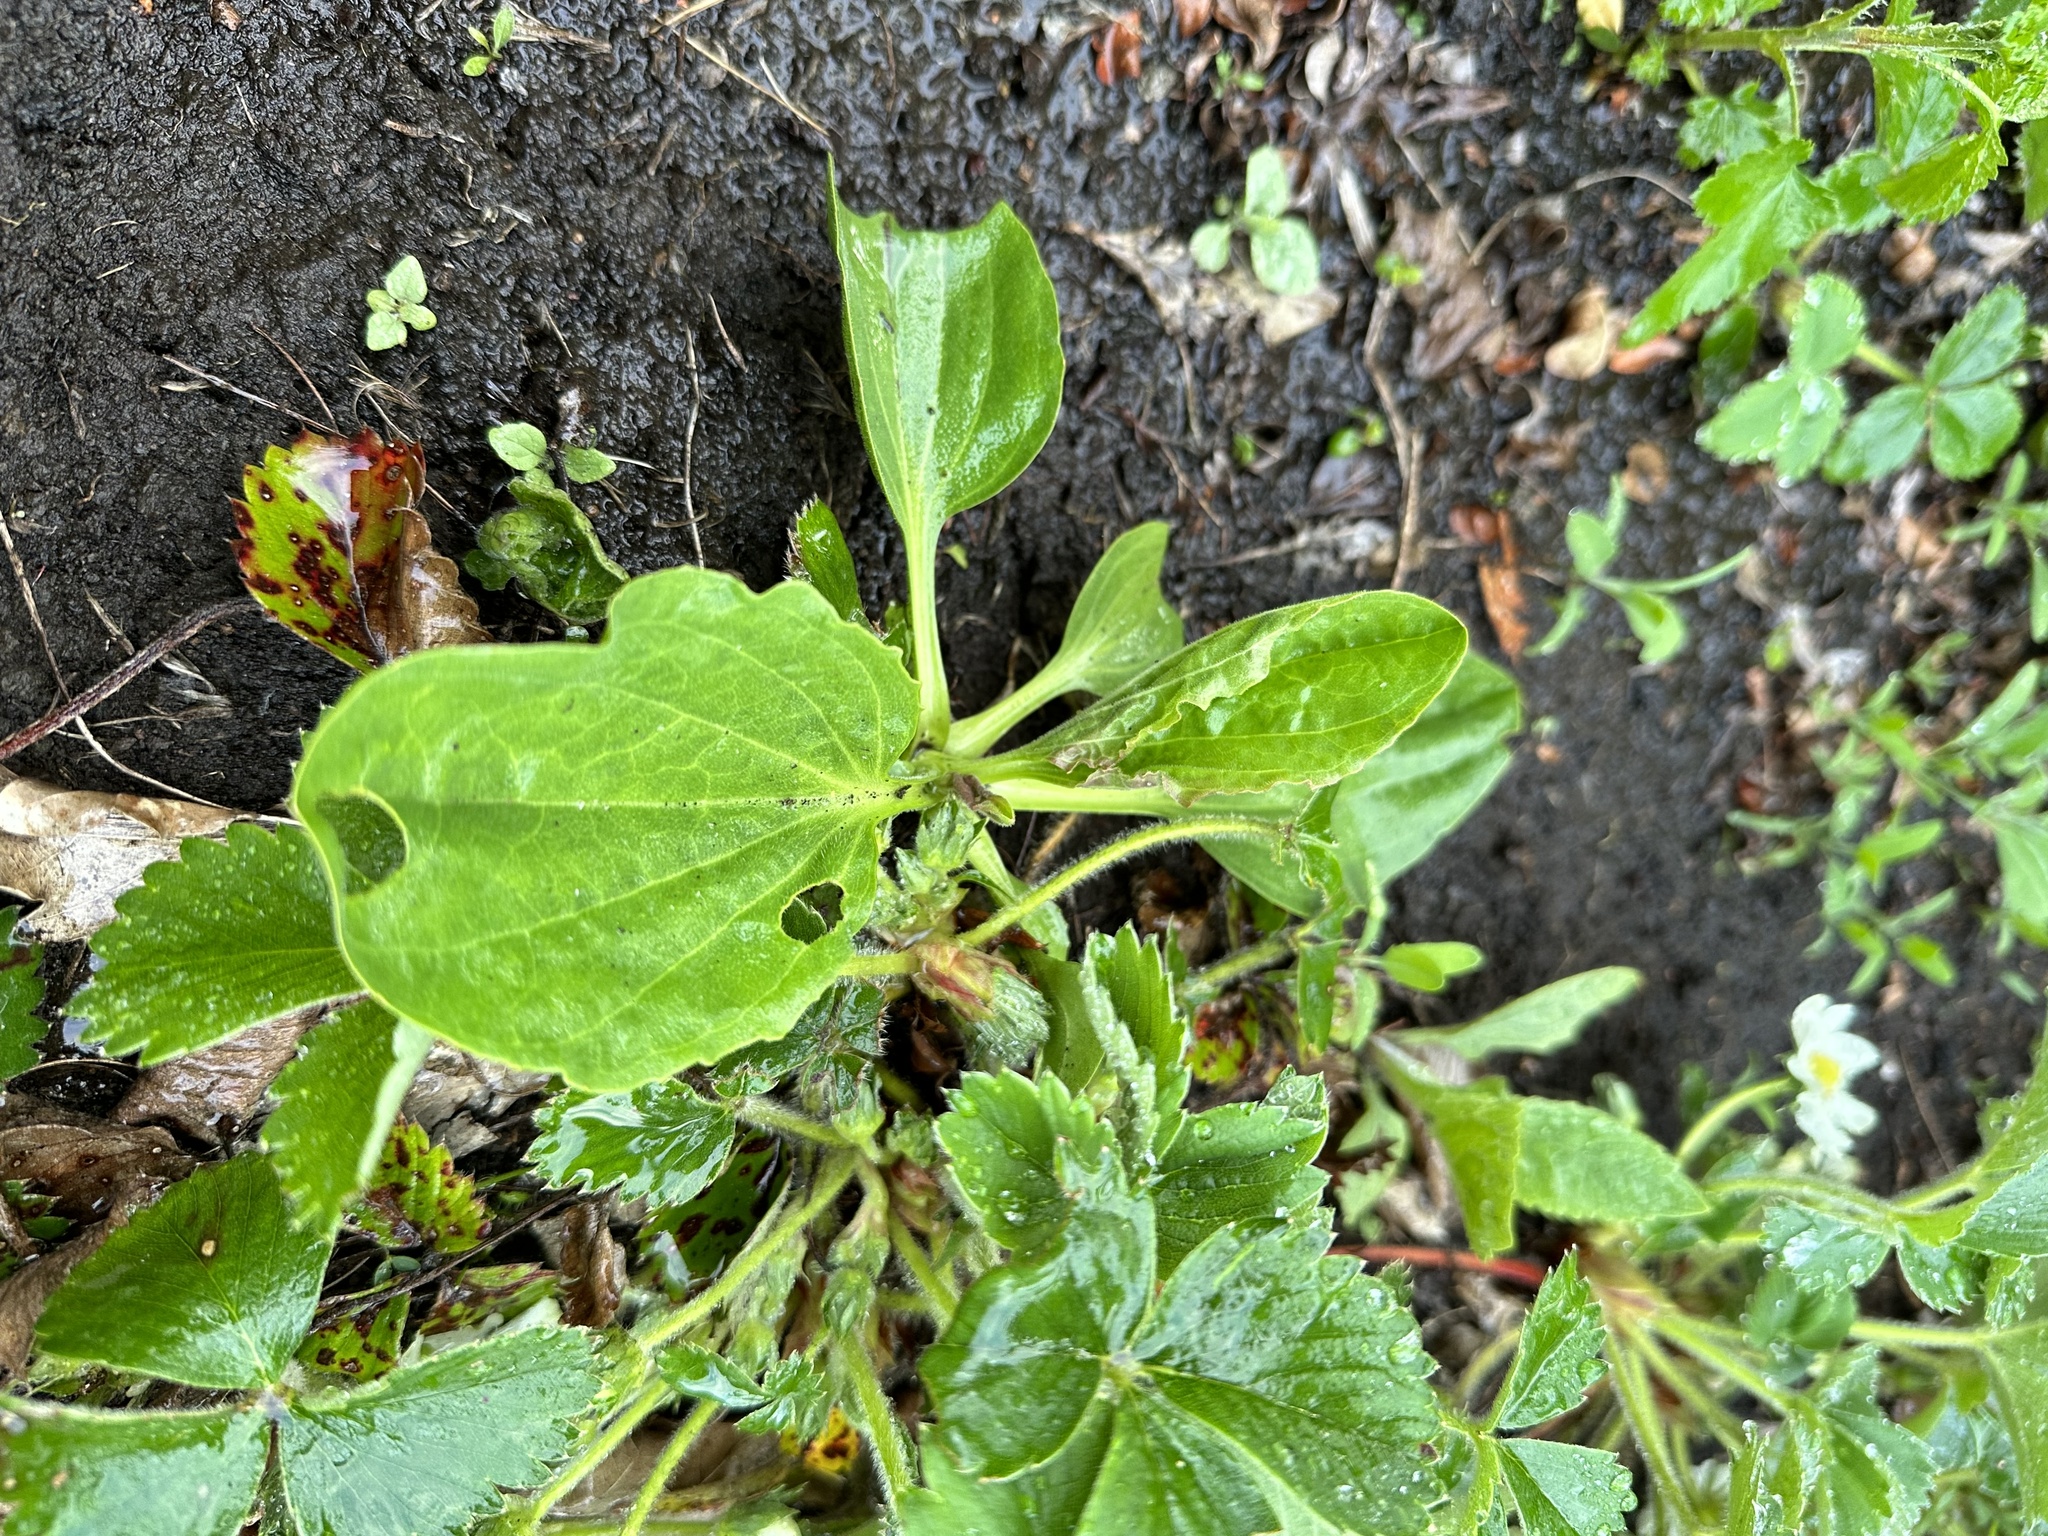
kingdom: Plantae
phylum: Tracheophyta
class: Magnoliopsida
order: Lamiales
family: Plantaginaceae
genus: Plantago
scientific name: Plantago major
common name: Common plantain
